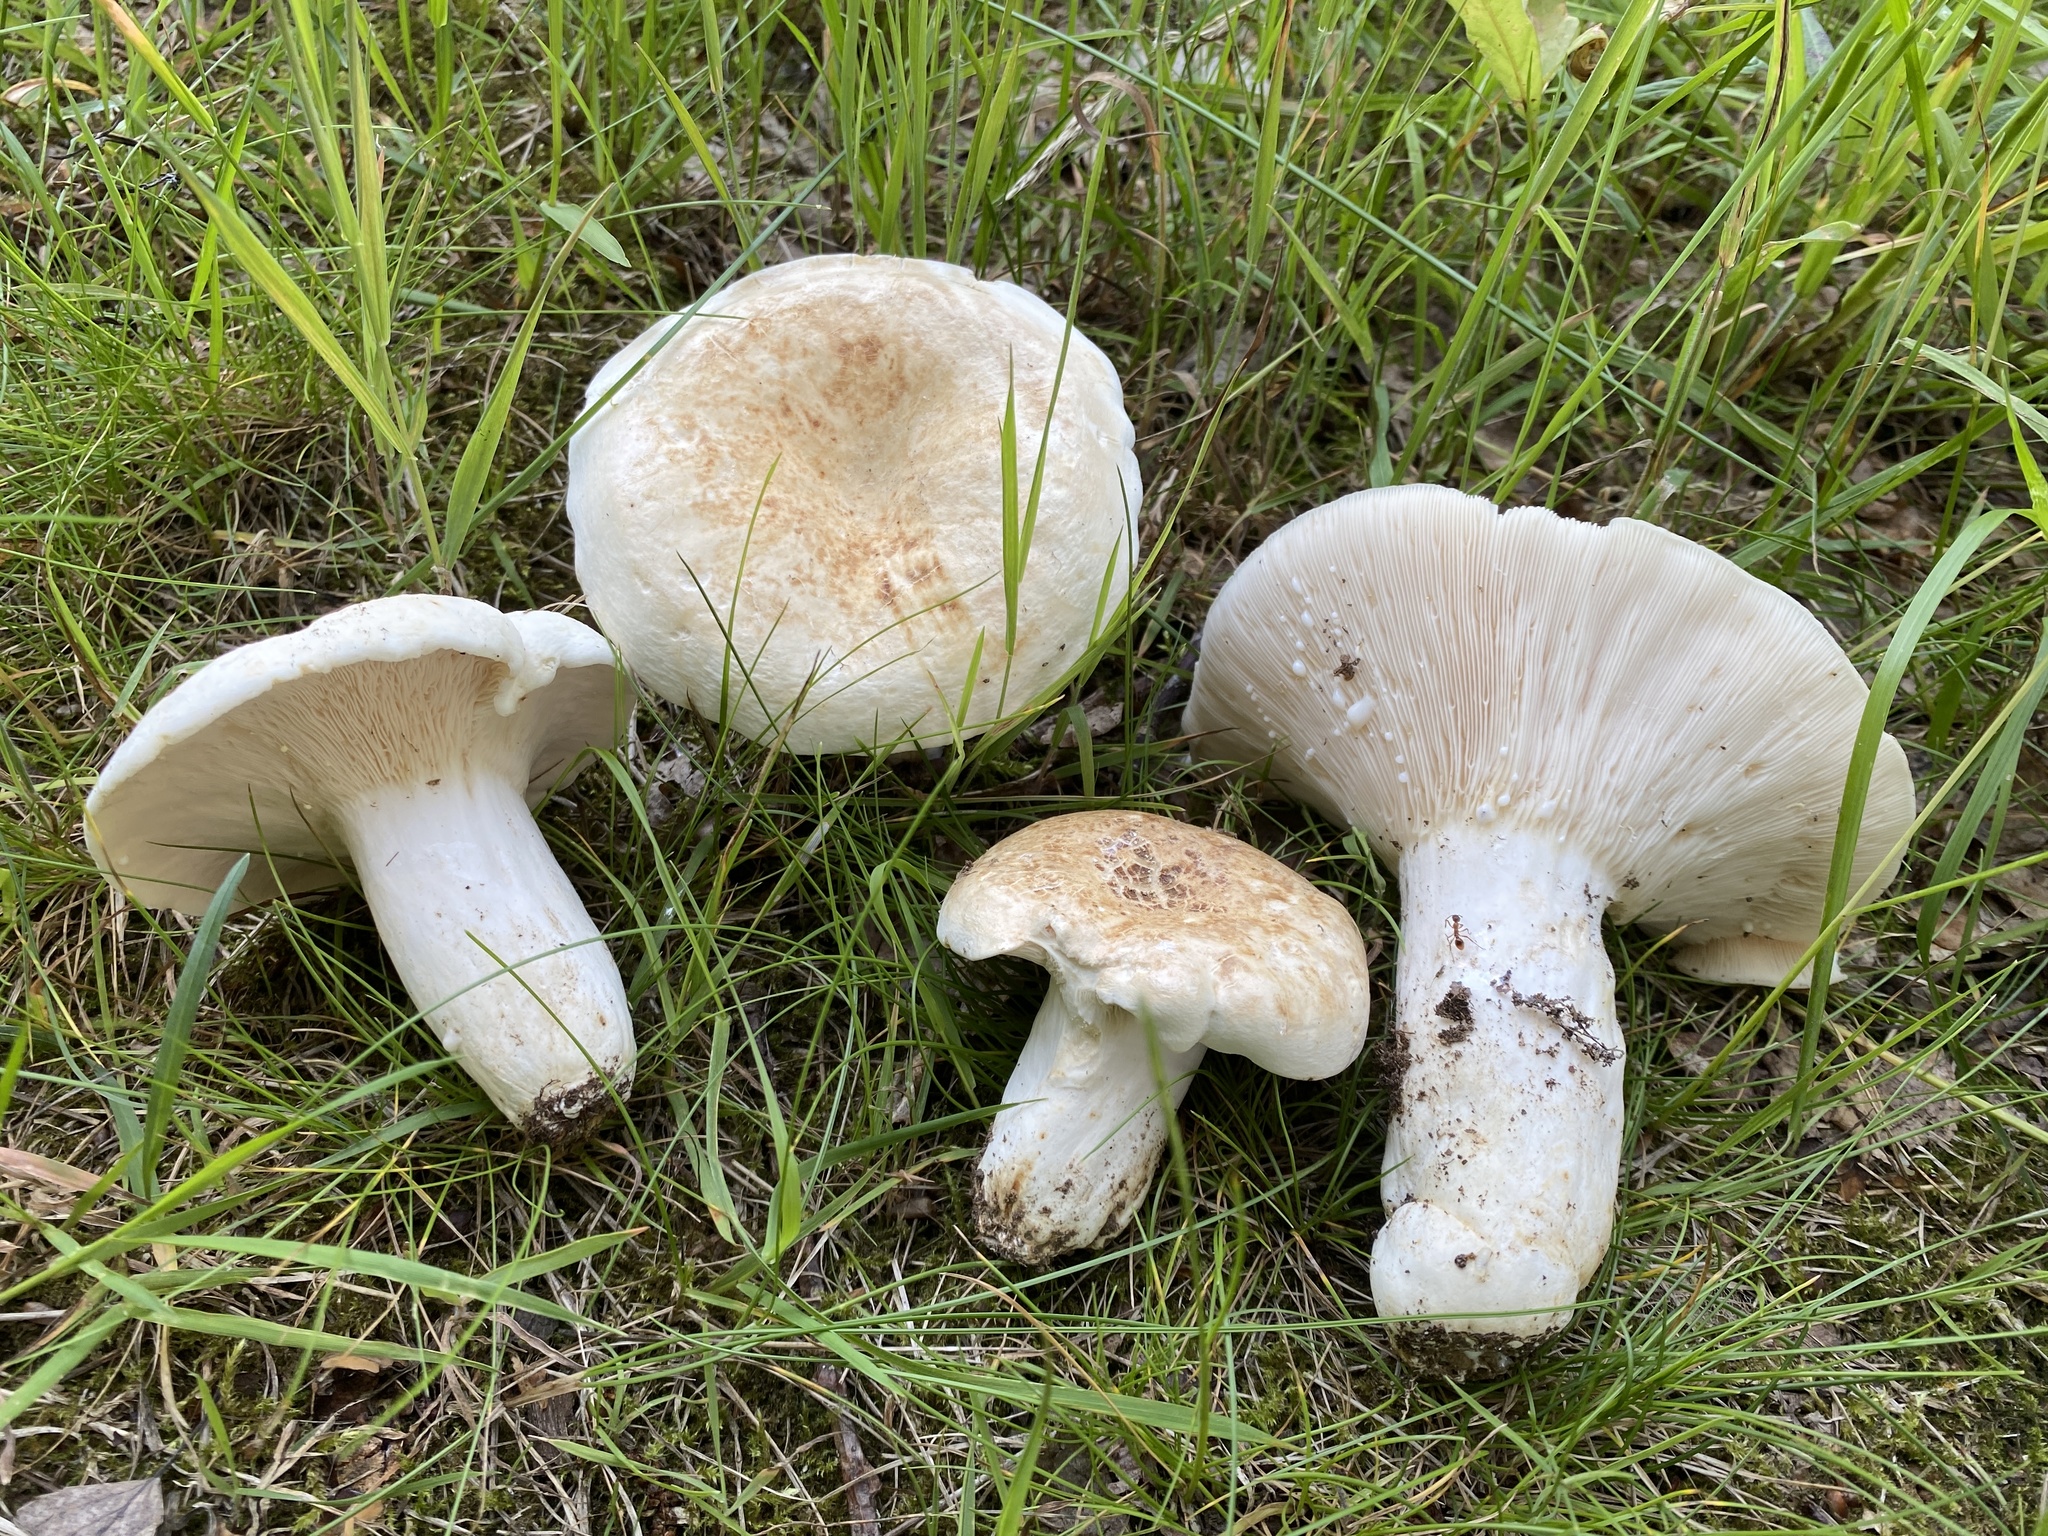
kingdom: Fungi
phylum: Basidiomycota
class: Agaricomycetes
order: Russulales
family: Russulaceae
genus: Lactifluus
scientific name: Lactifluus piperatus
